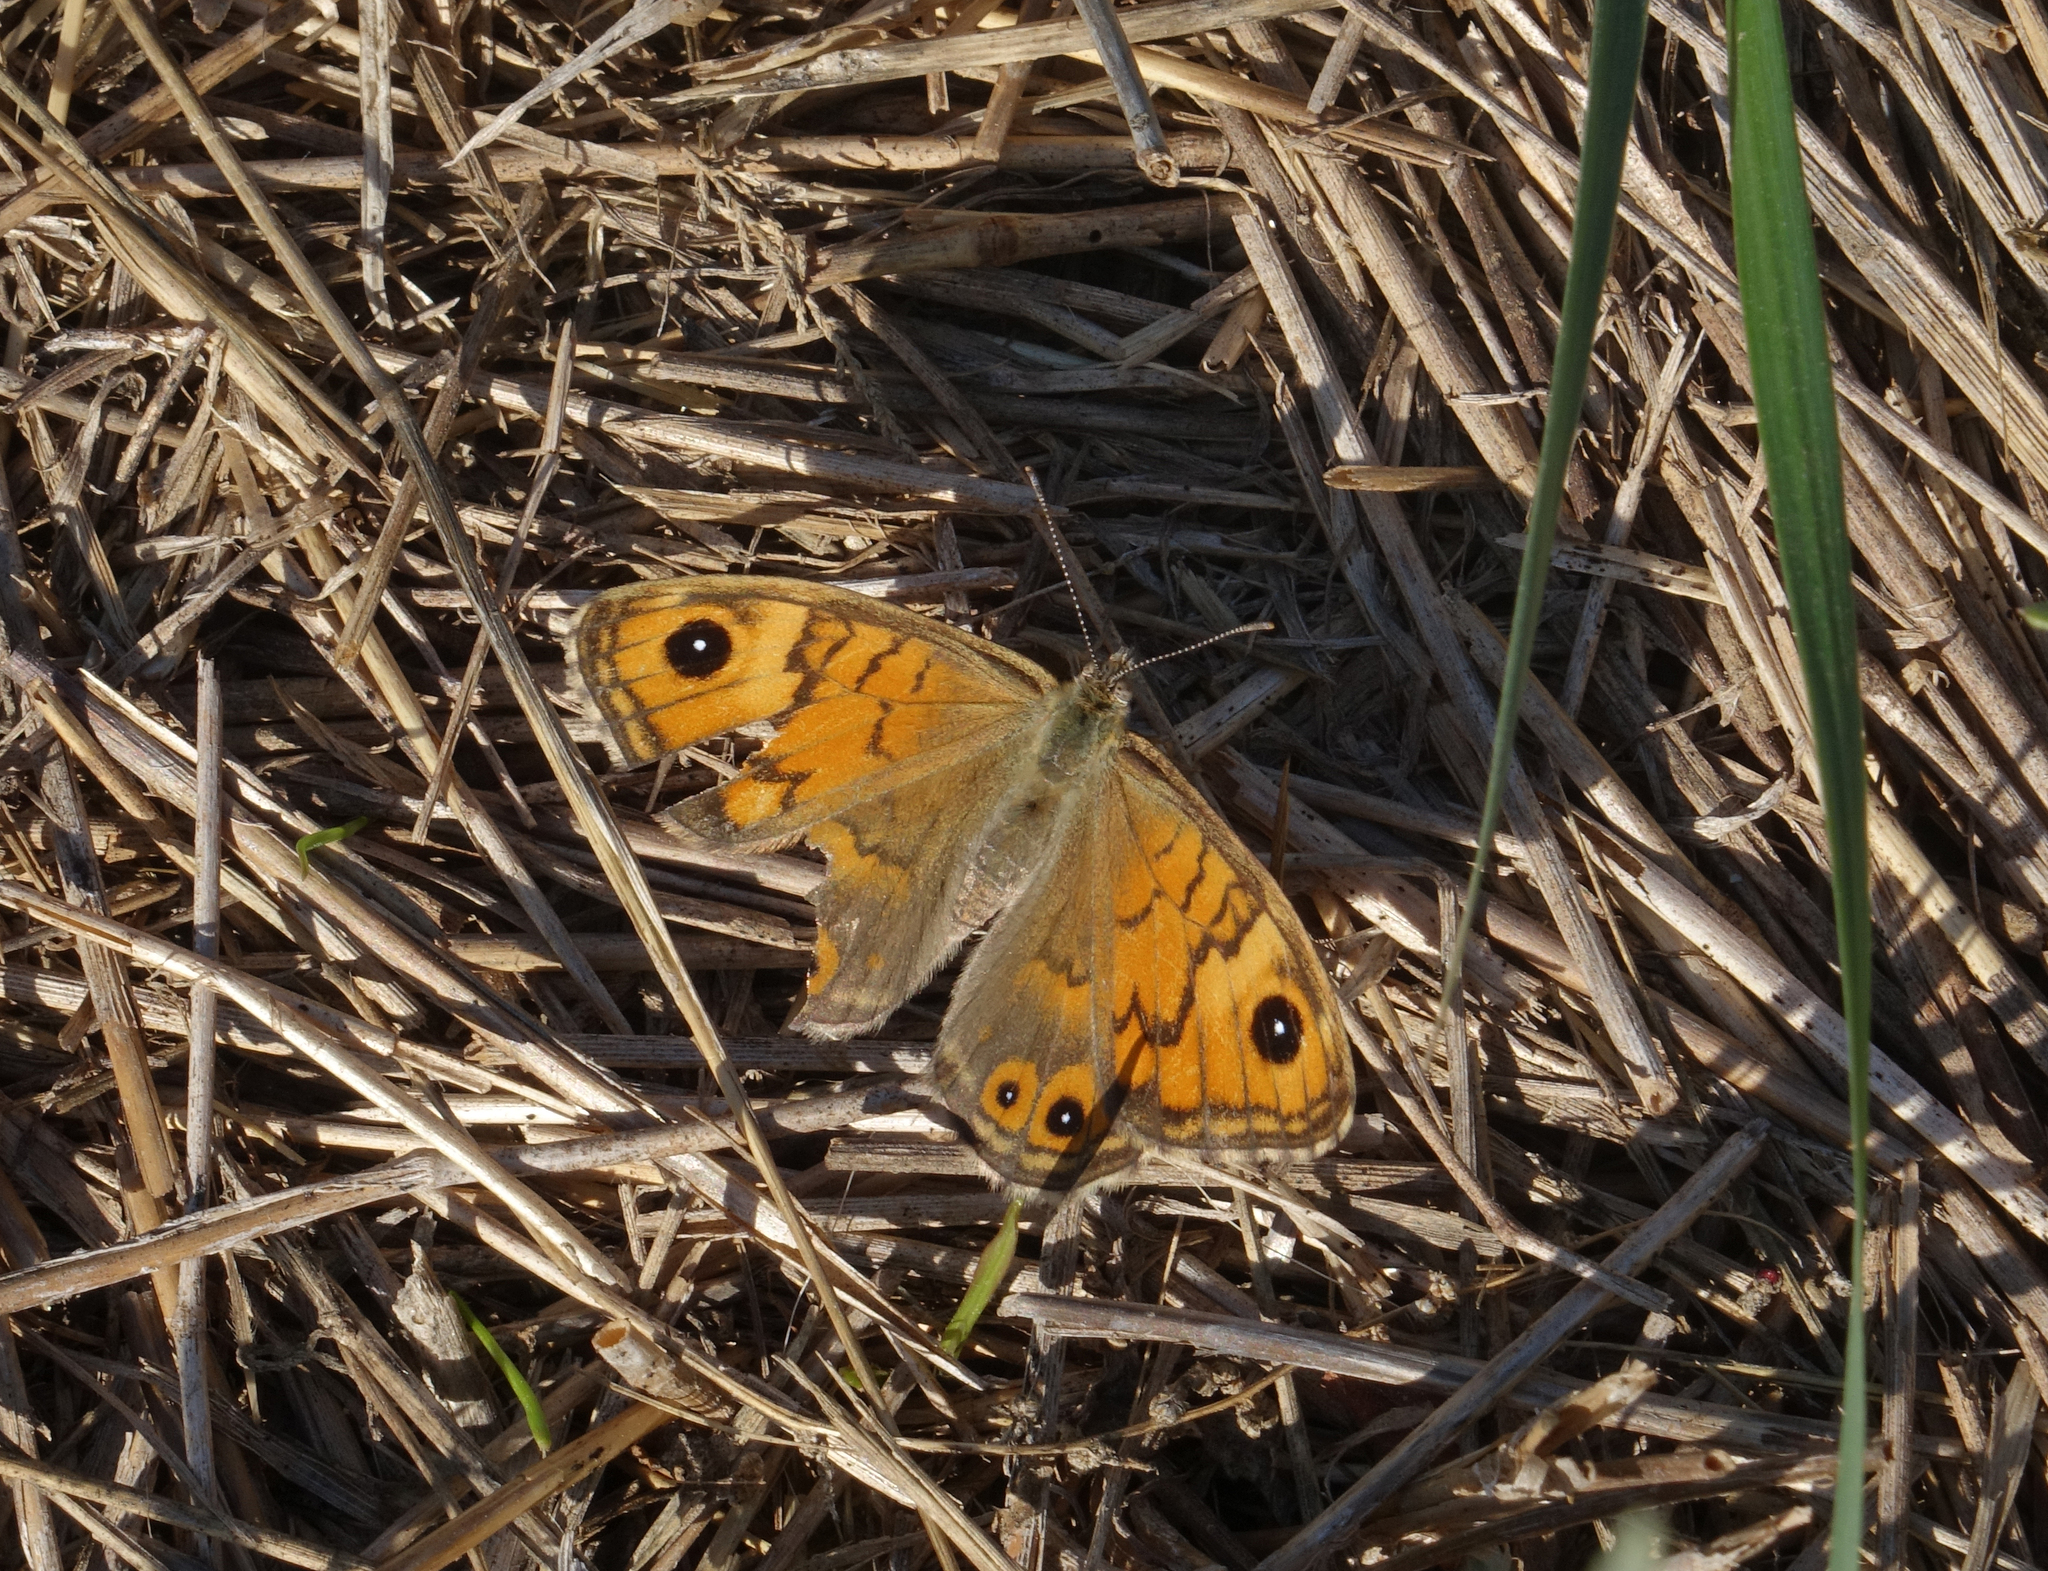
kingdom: Animalia
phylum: Arthropoda
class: Insecta
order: Lepidoptera
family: Nymphalidae
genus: Pararge
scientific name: Pararge Lasiommata megera
